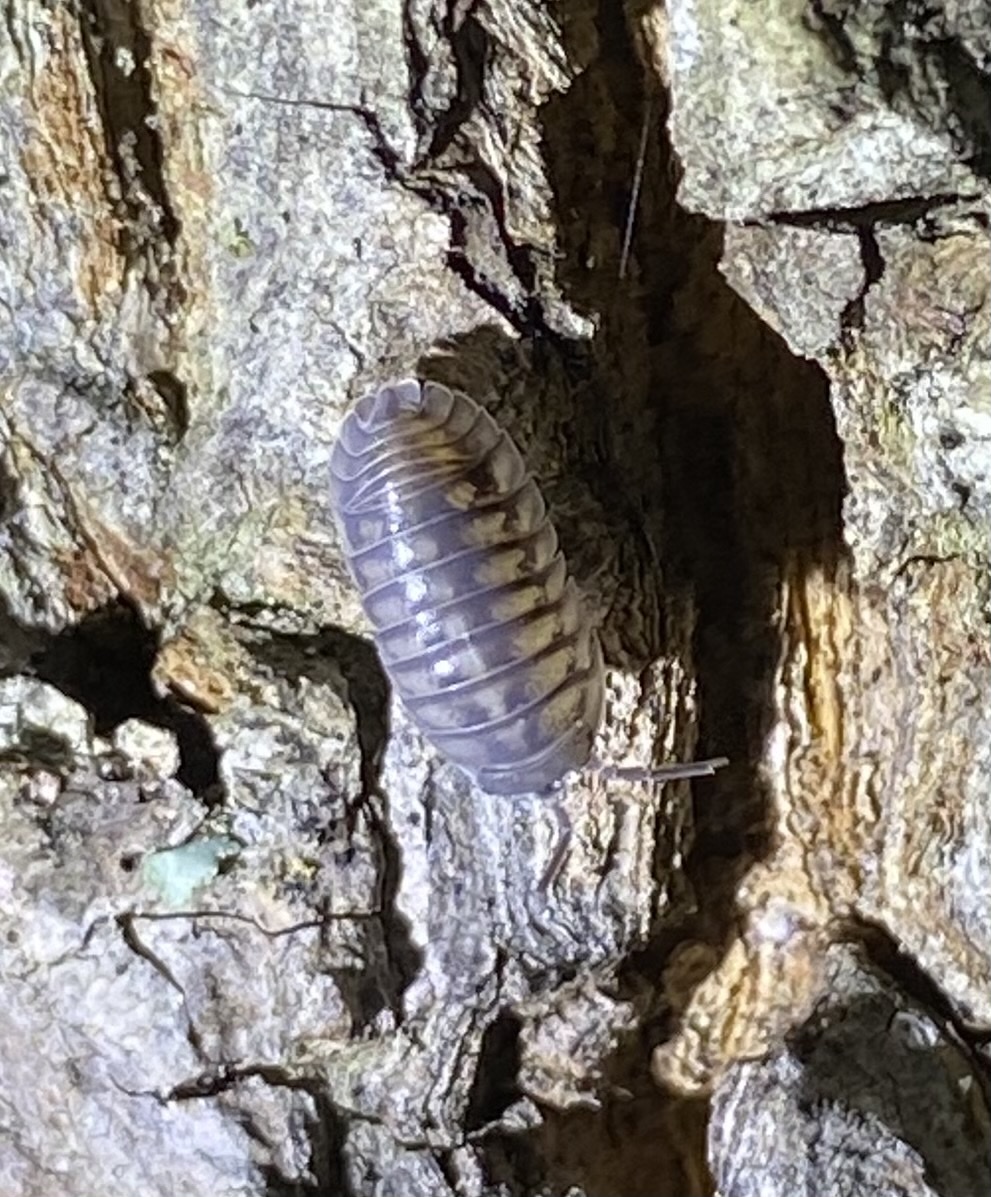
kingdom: Animalia
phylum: Arthropoda
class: Malacostraca
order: Isopoda
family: Armadillidiidae
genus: Armadillidium
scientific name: Armadillidium nasatum
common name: Isopod
